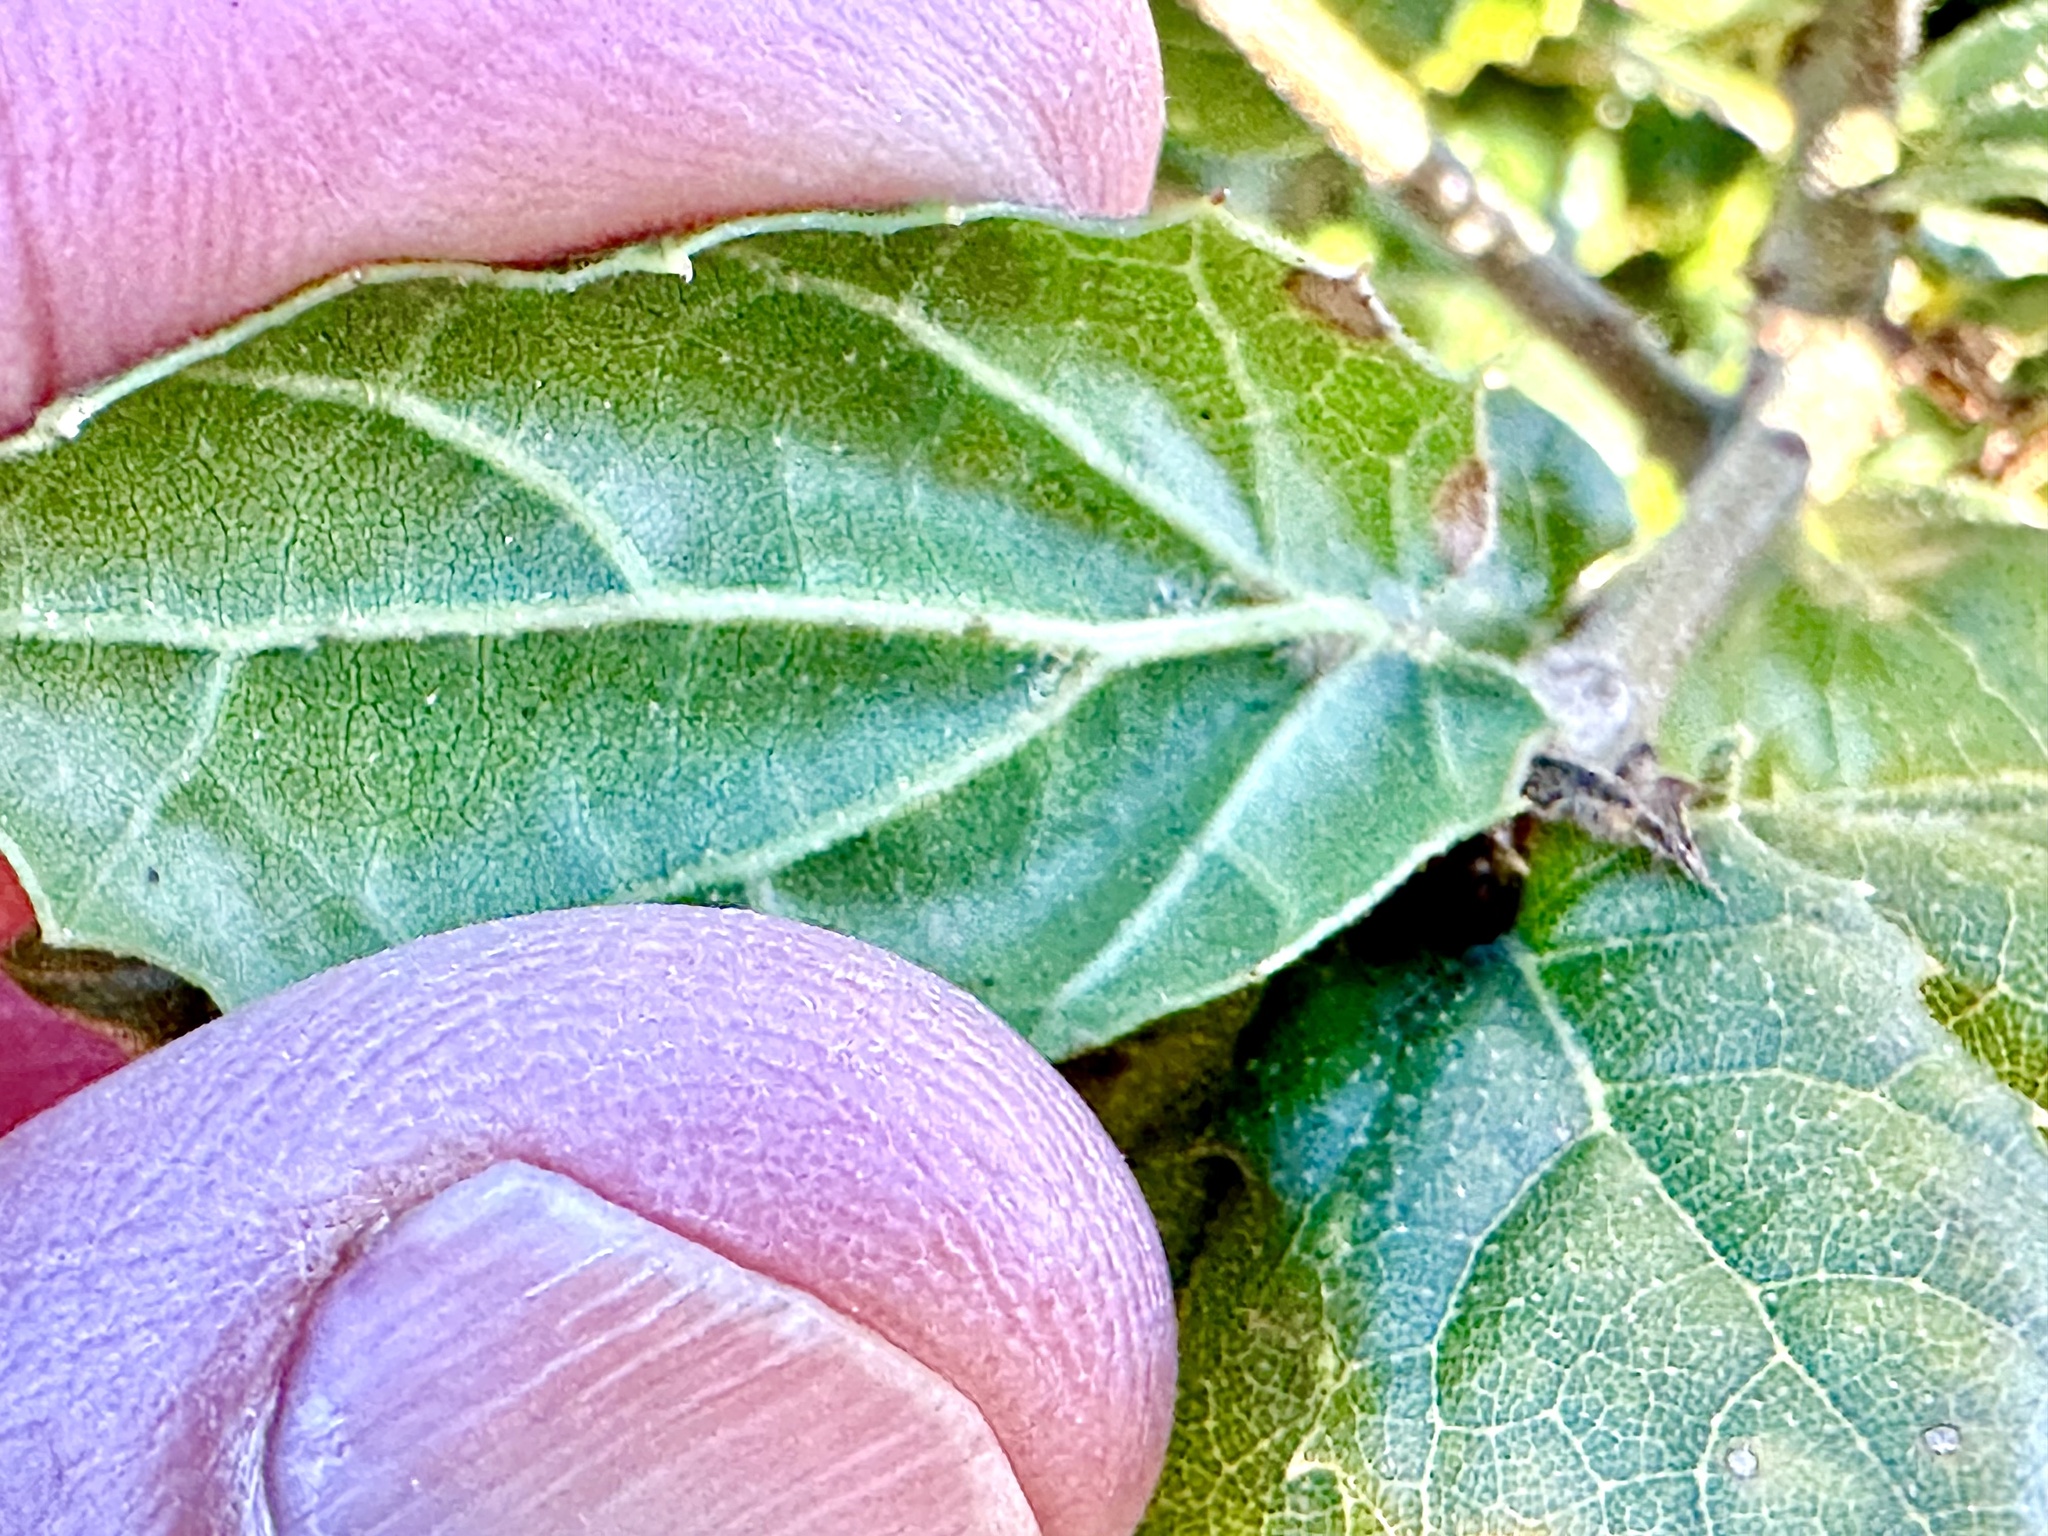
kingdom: Plantae
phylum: Tracheophyta
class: Magnoliopsida
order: Fagales
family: Fagaceae
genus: Quercus
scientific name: Quercus agrifolia
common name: California live oak
